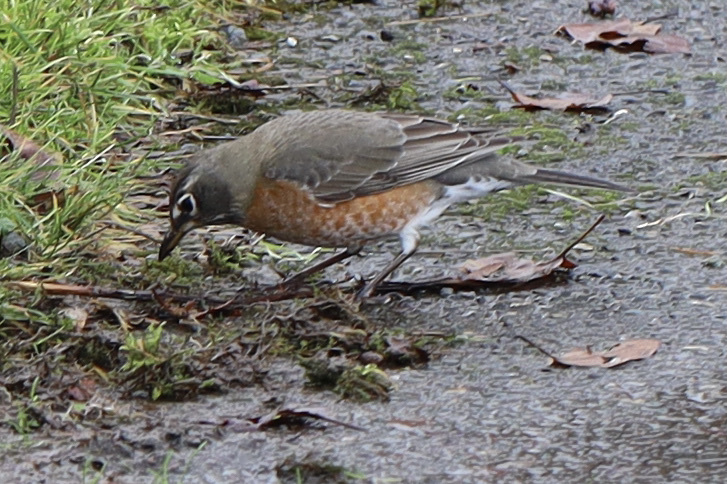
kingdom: Animalia
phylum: Chordata
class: Aves
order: Passeriformes
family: Turdidae
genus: Turdus
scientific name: Turdus migratorius
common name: American robin
